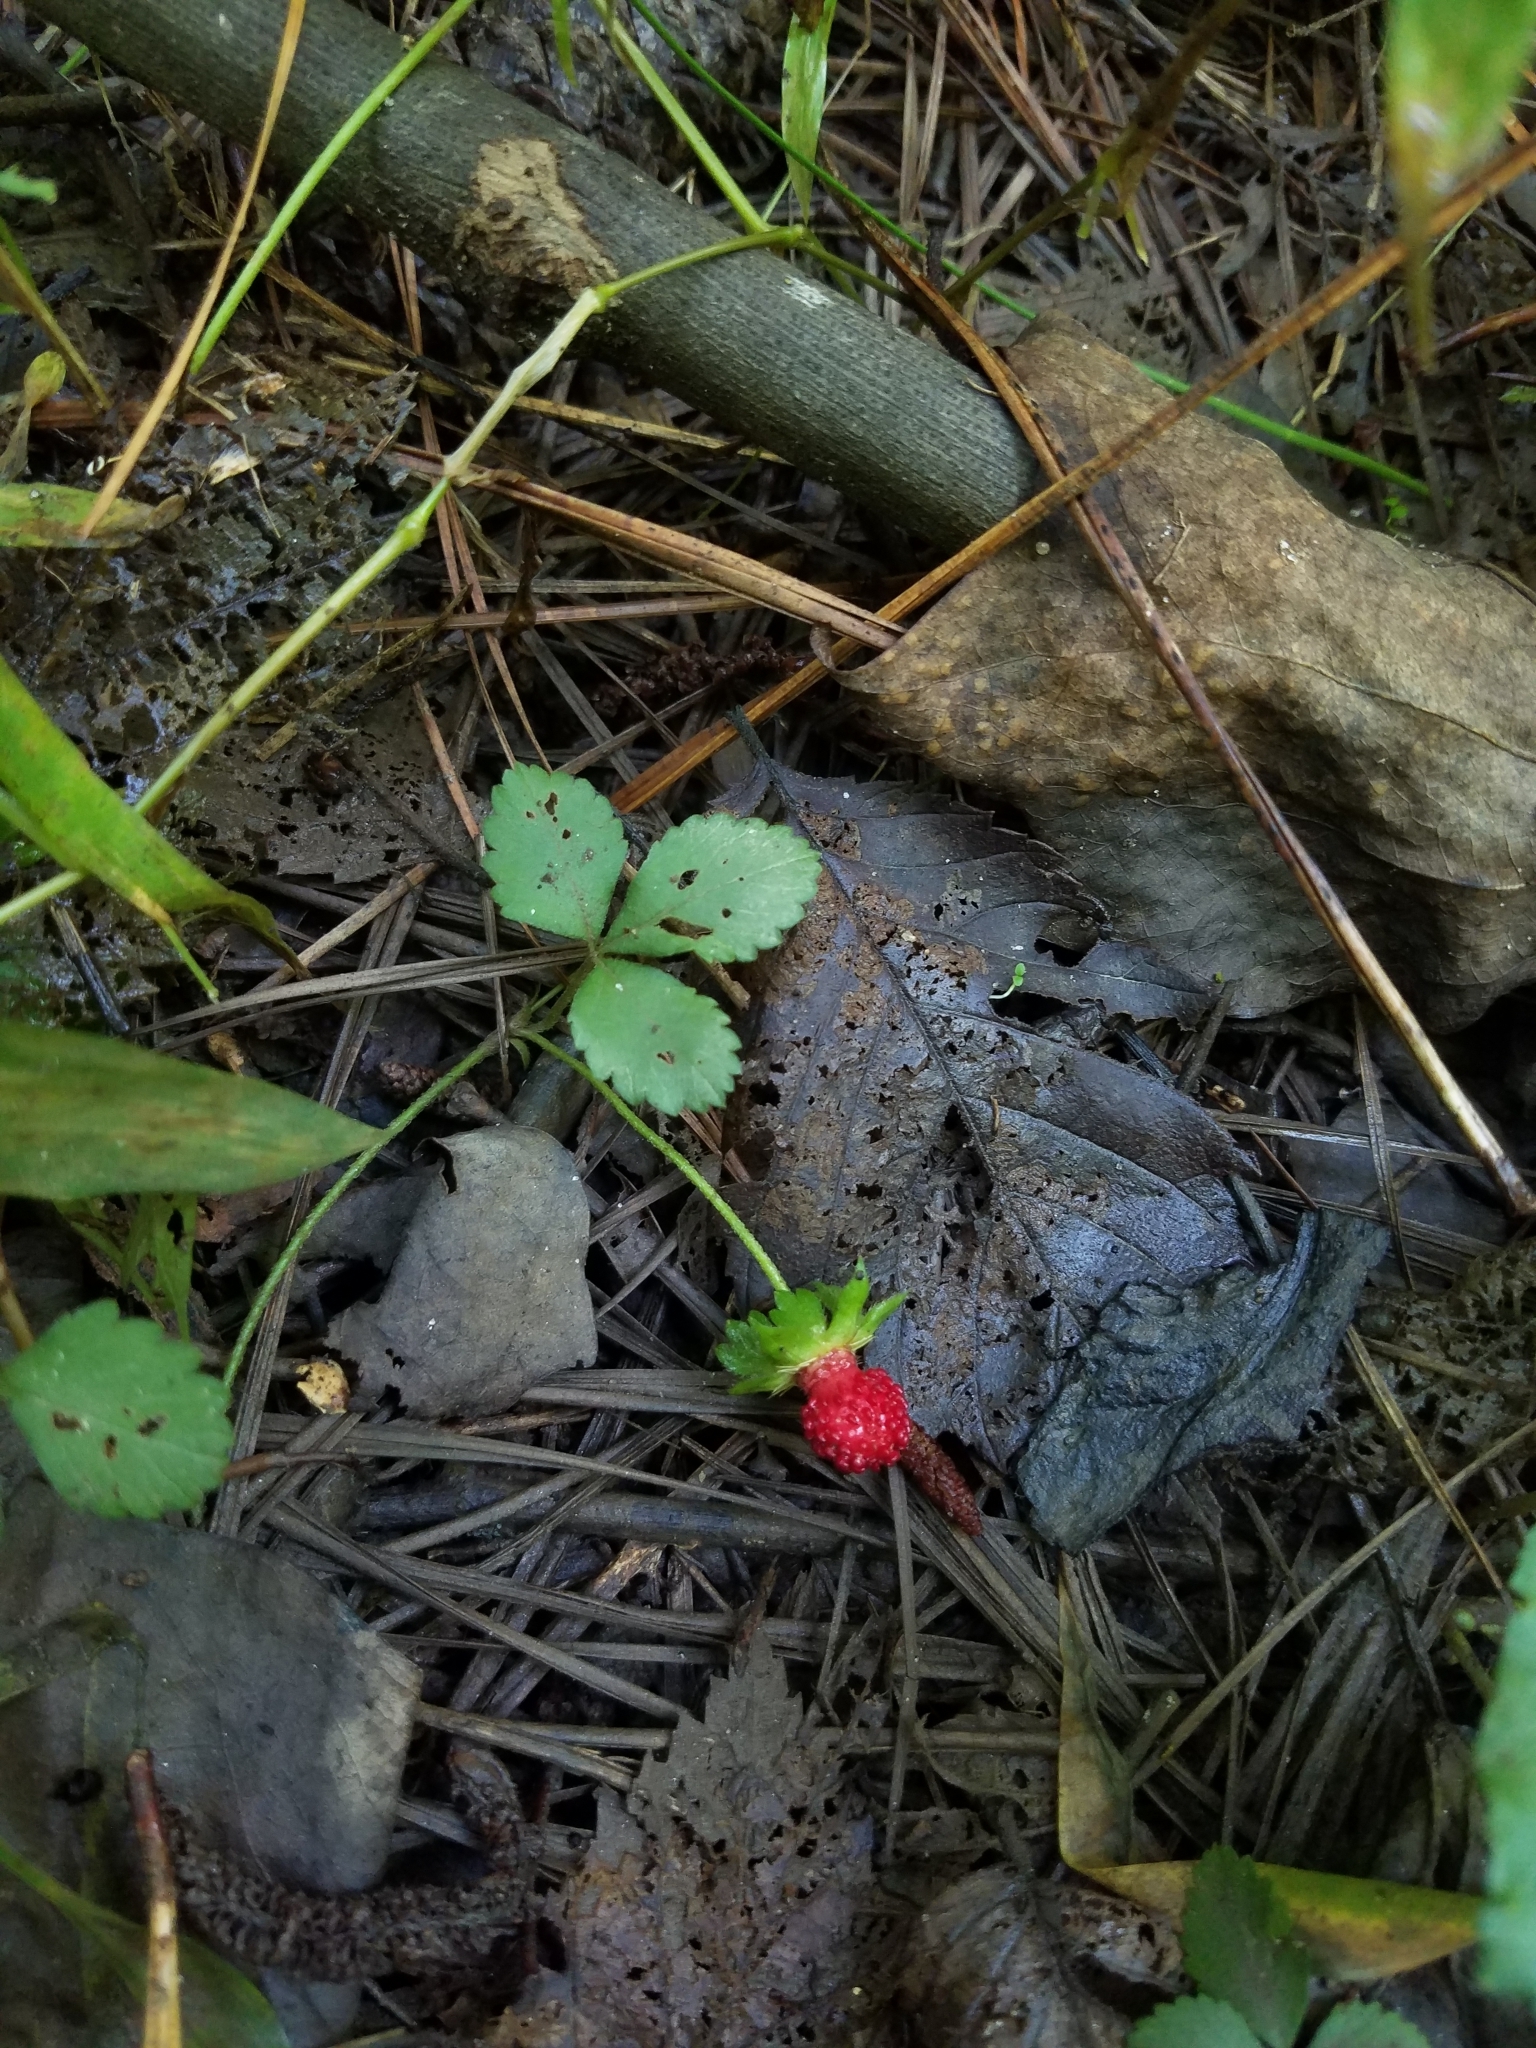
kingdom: Plantae
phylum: Tracheophyta
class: Magnoliopsida
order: Rosales
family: Rosaceae
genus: Potentilla
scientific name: Potentilla indica
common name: Yellow-flowered strawberry
